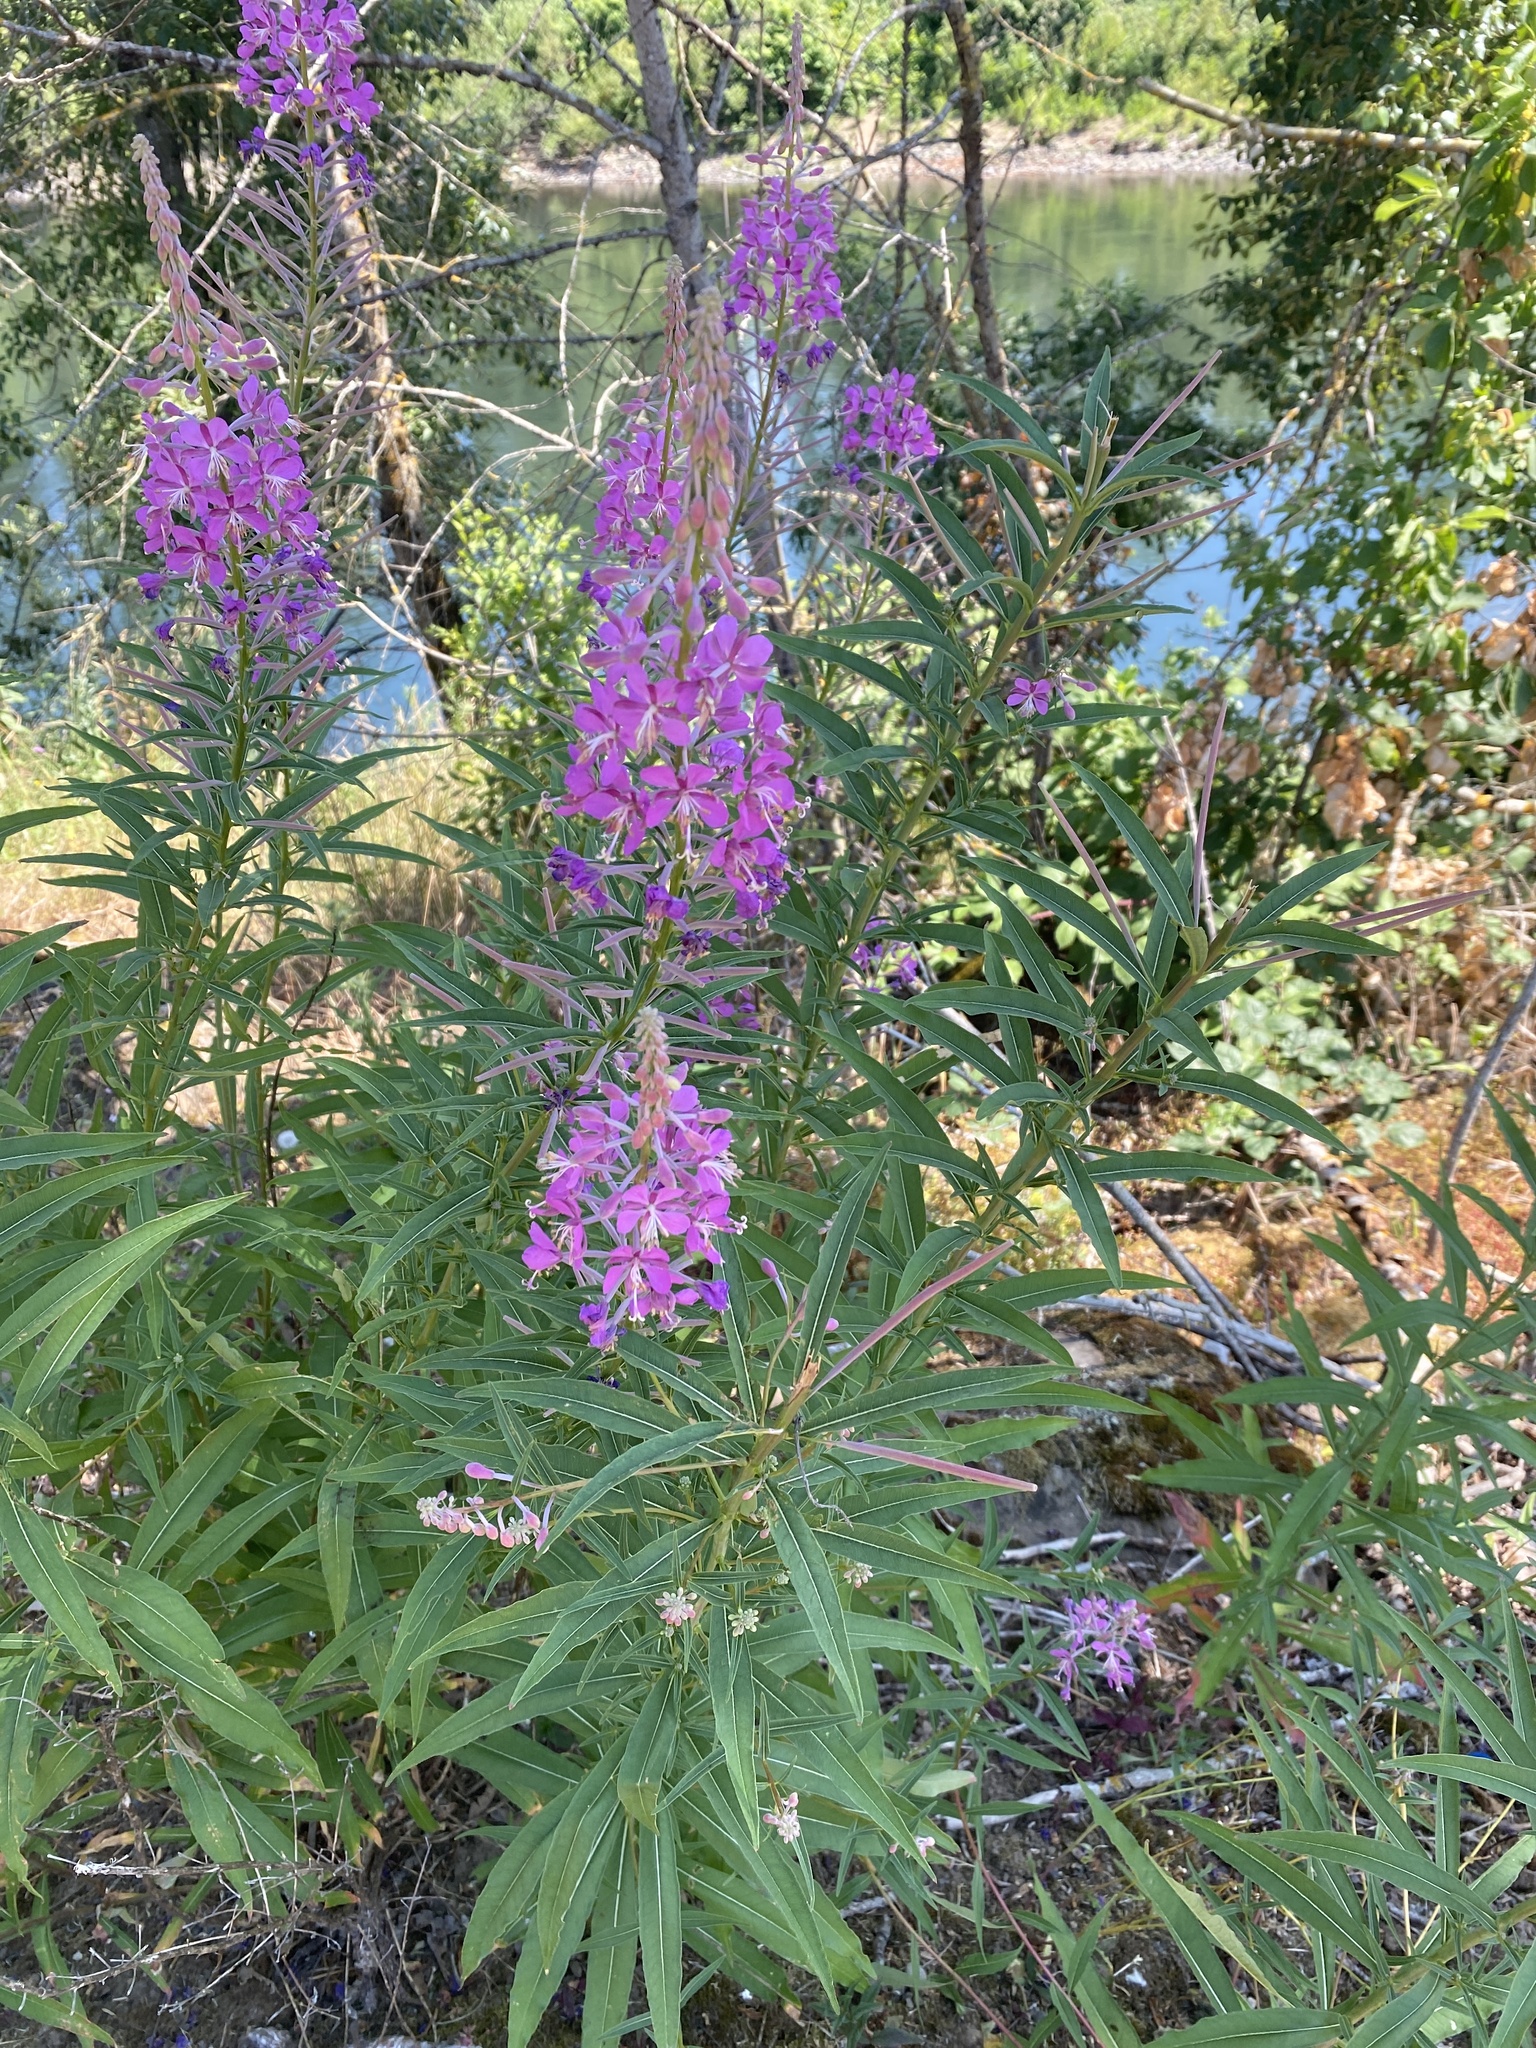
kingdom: Plantae
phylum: Tracheophyta
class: Magnoliopsida
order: Myrtales
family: Onagraceae
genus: Chamaenerion
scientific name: Chamaenerion angustifolium
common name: Fireweed
